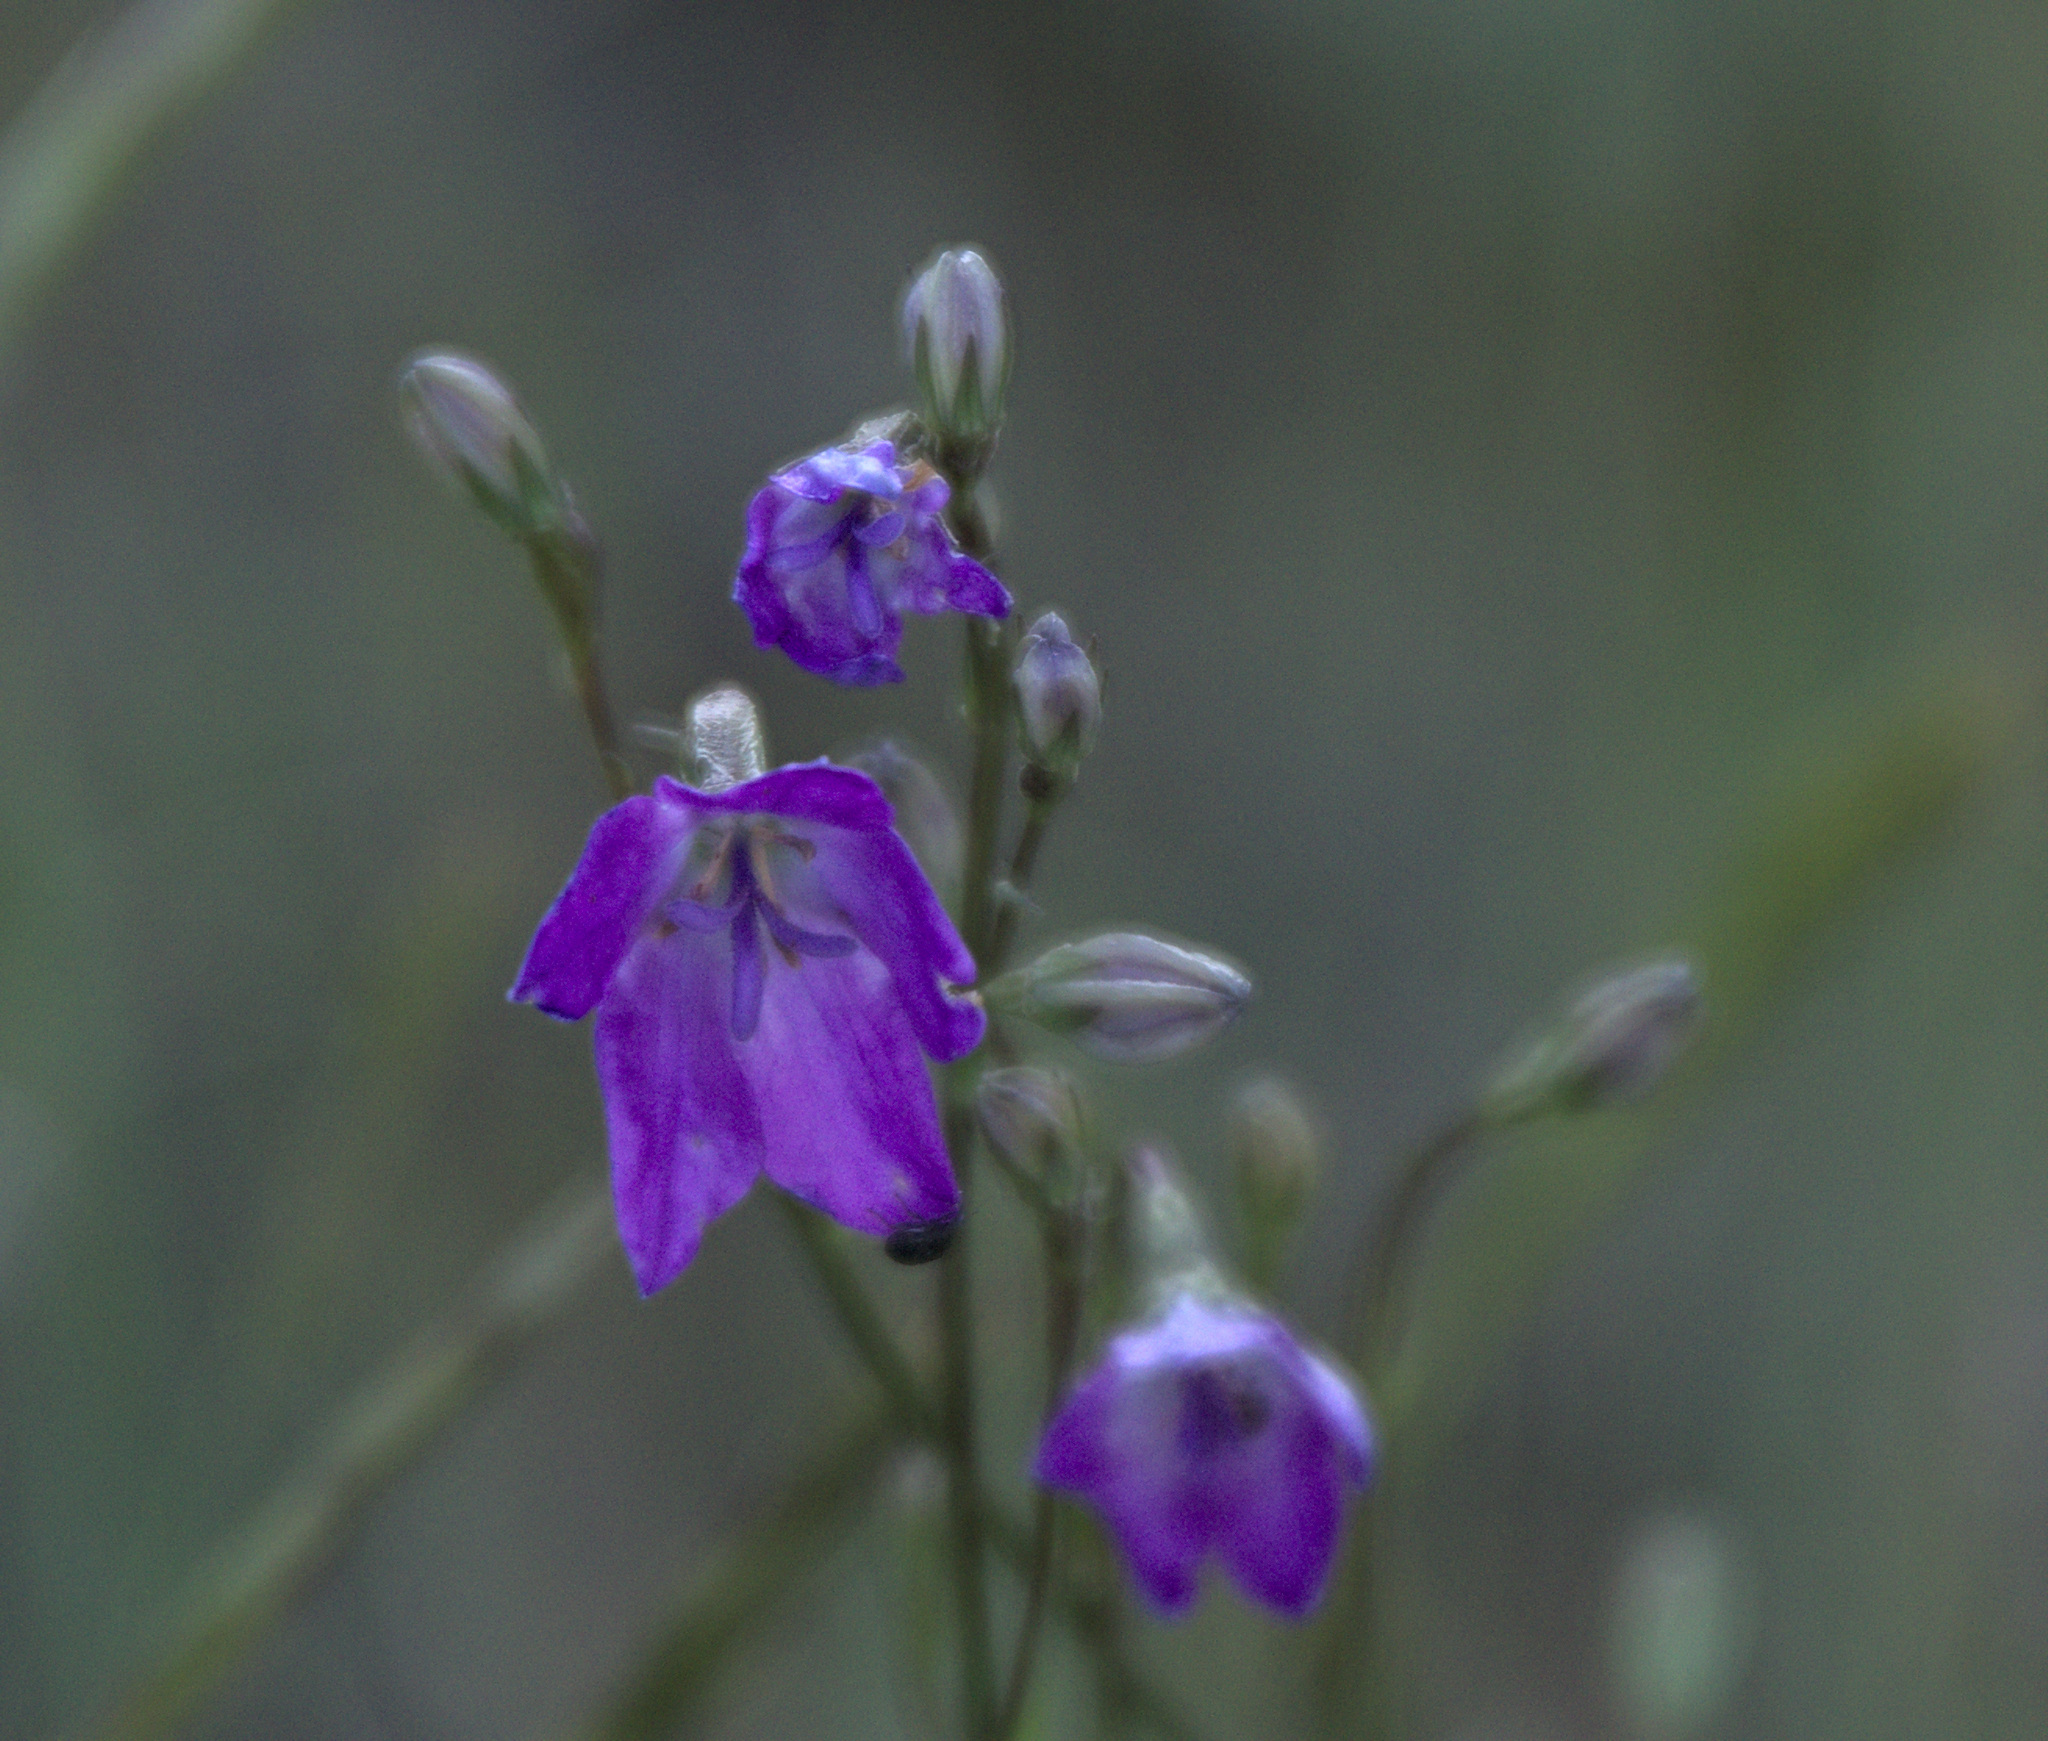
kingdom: Plantae
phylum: Tracheophyta
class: Magnoliopsida
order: Asterales
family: Campanulaceae
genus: Campanula
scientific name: Campanula stevenii
